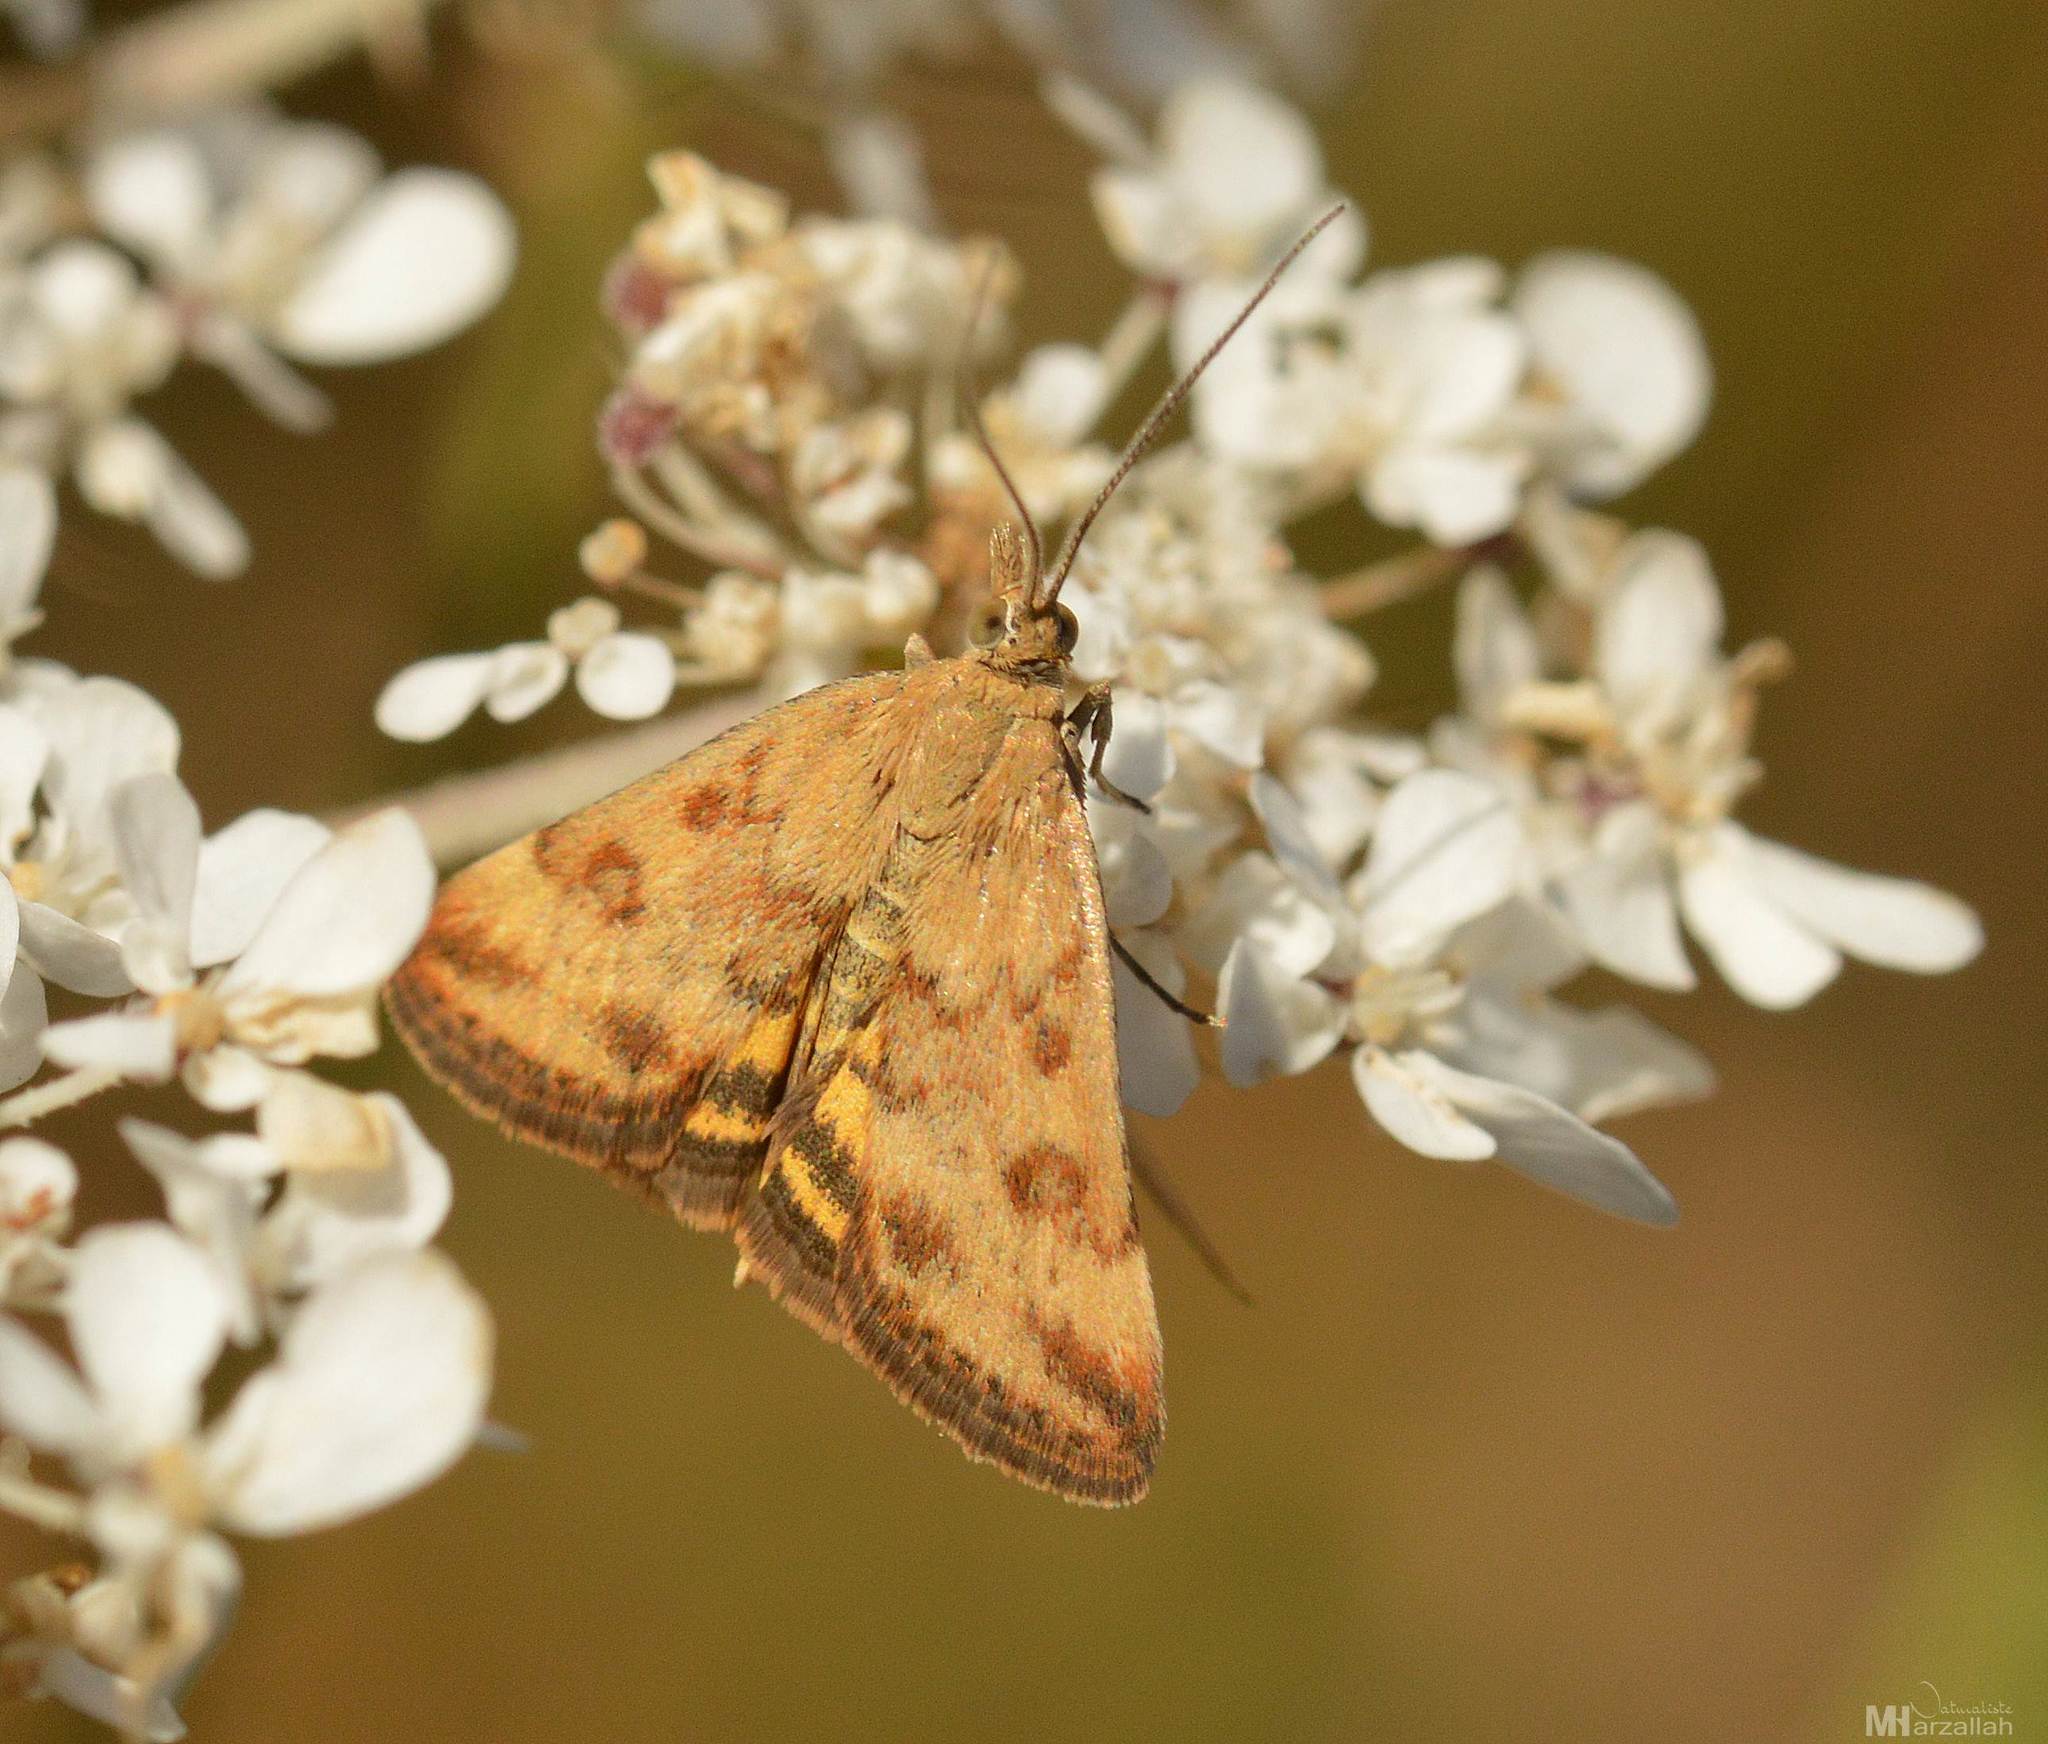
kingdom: Animalia
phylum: Arthropoda
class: Insecta
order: Lepidoptera
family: Crambidae
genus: Pyrausta
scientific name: Pyrausta despicata
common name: Straw-barred pearl
